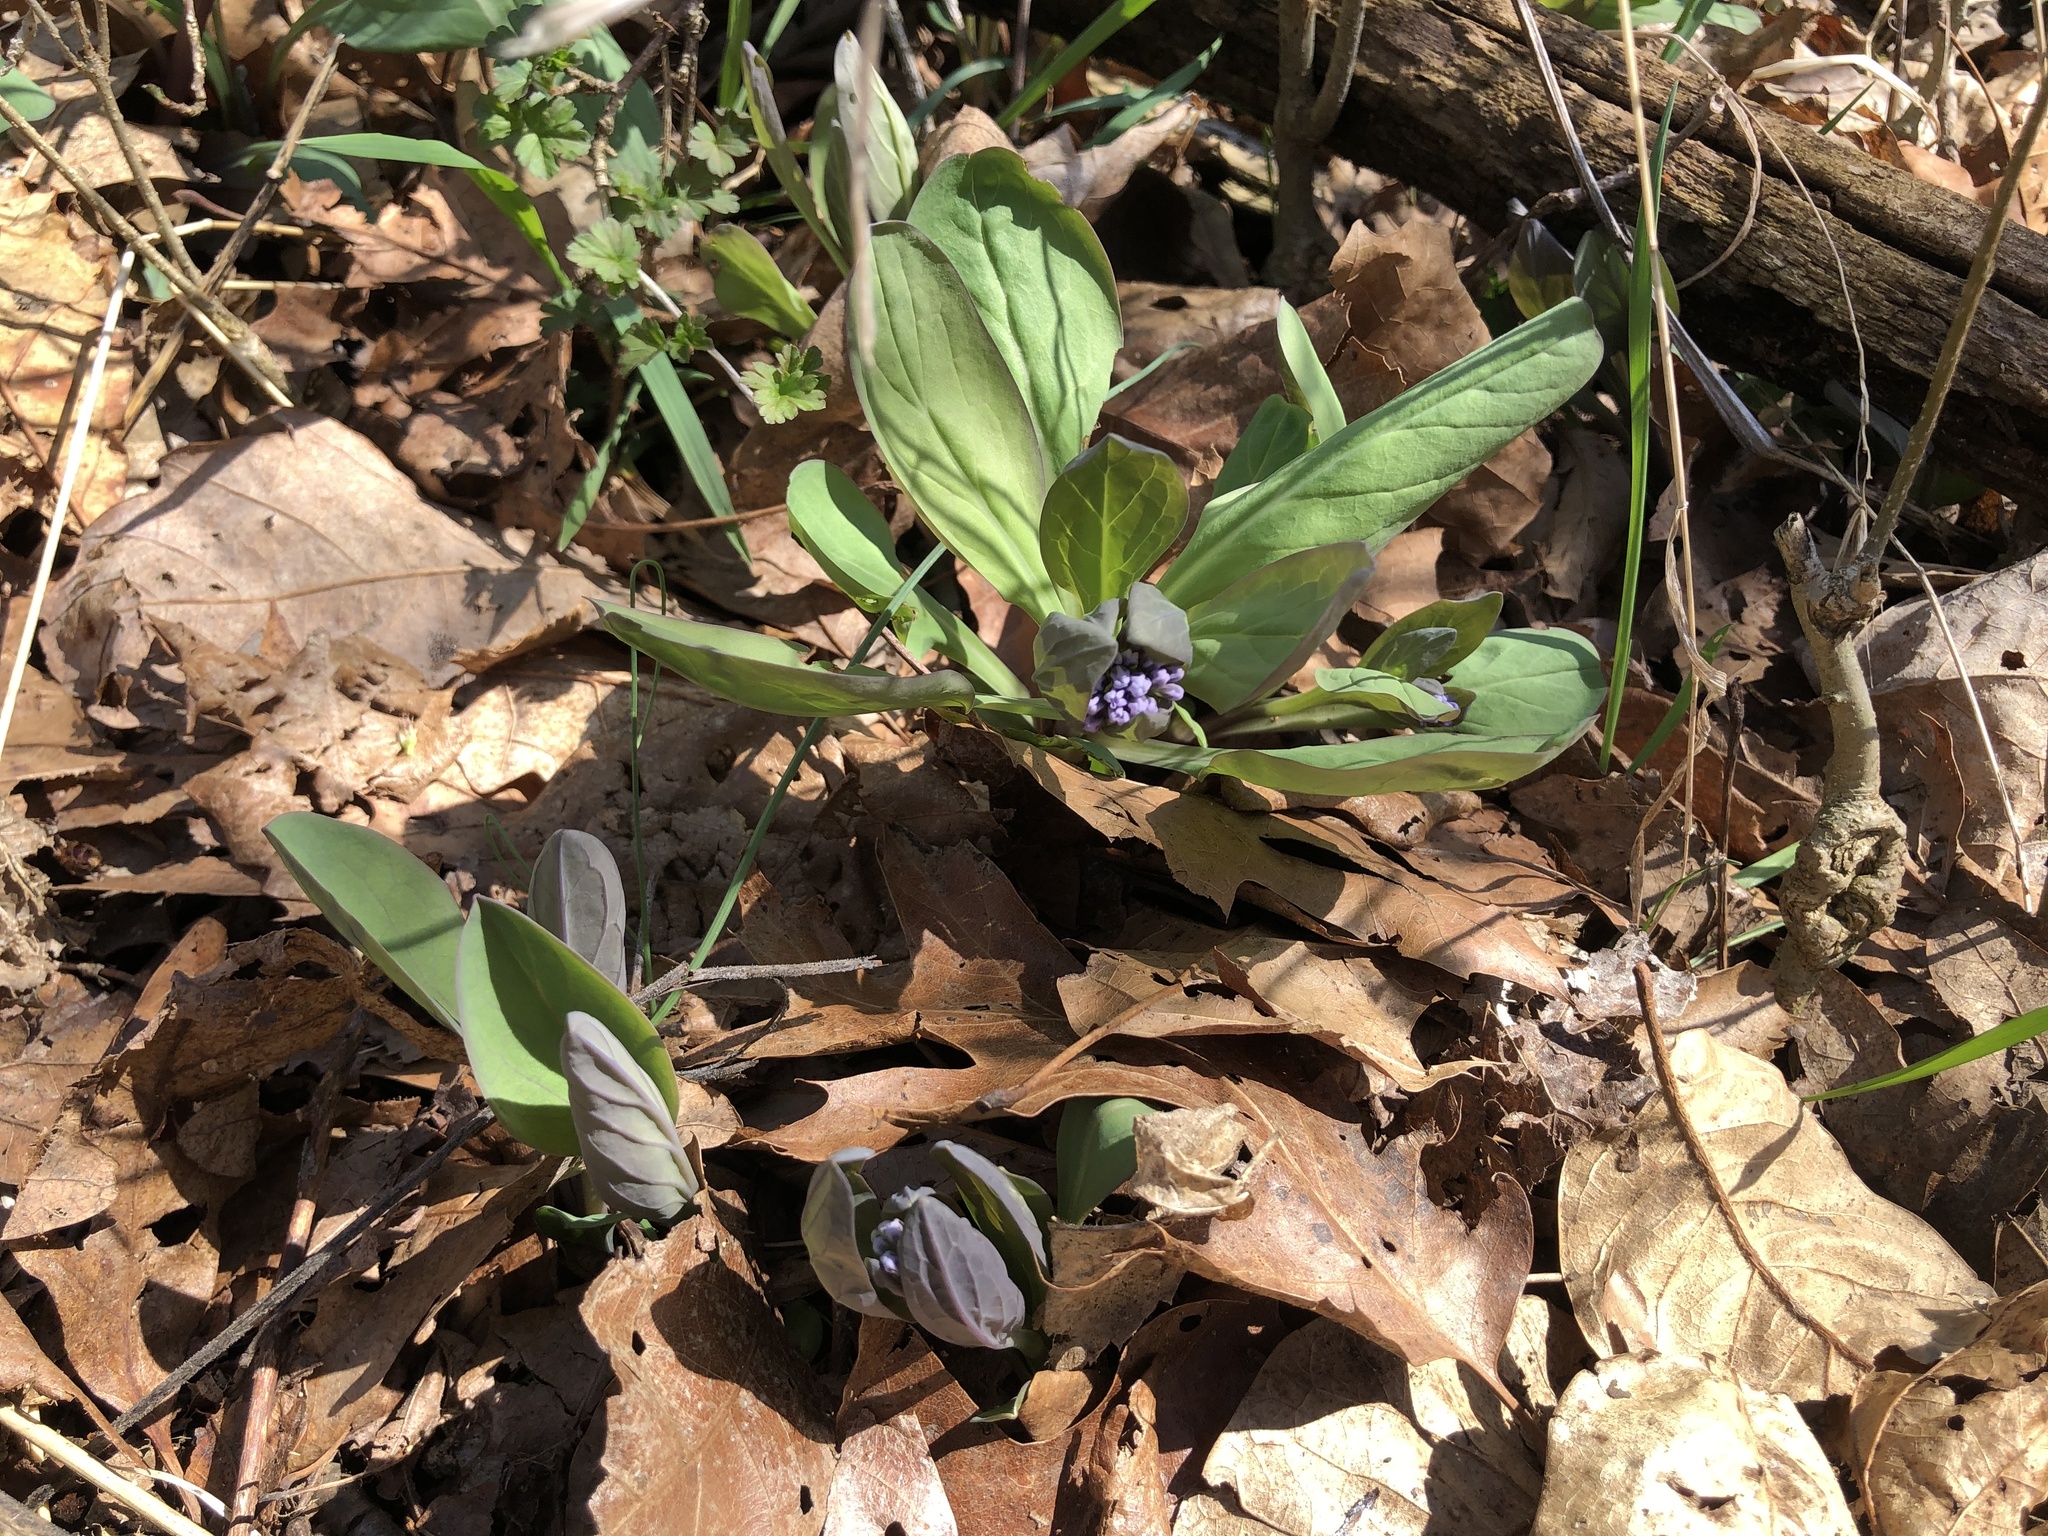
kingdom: Plantae
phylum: Tracheophyta
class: Magnoliopsida
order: Boraginales
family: Boraginaceae
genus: Mertensia
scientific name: Mertensia virginica
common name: Virginia bluebells
